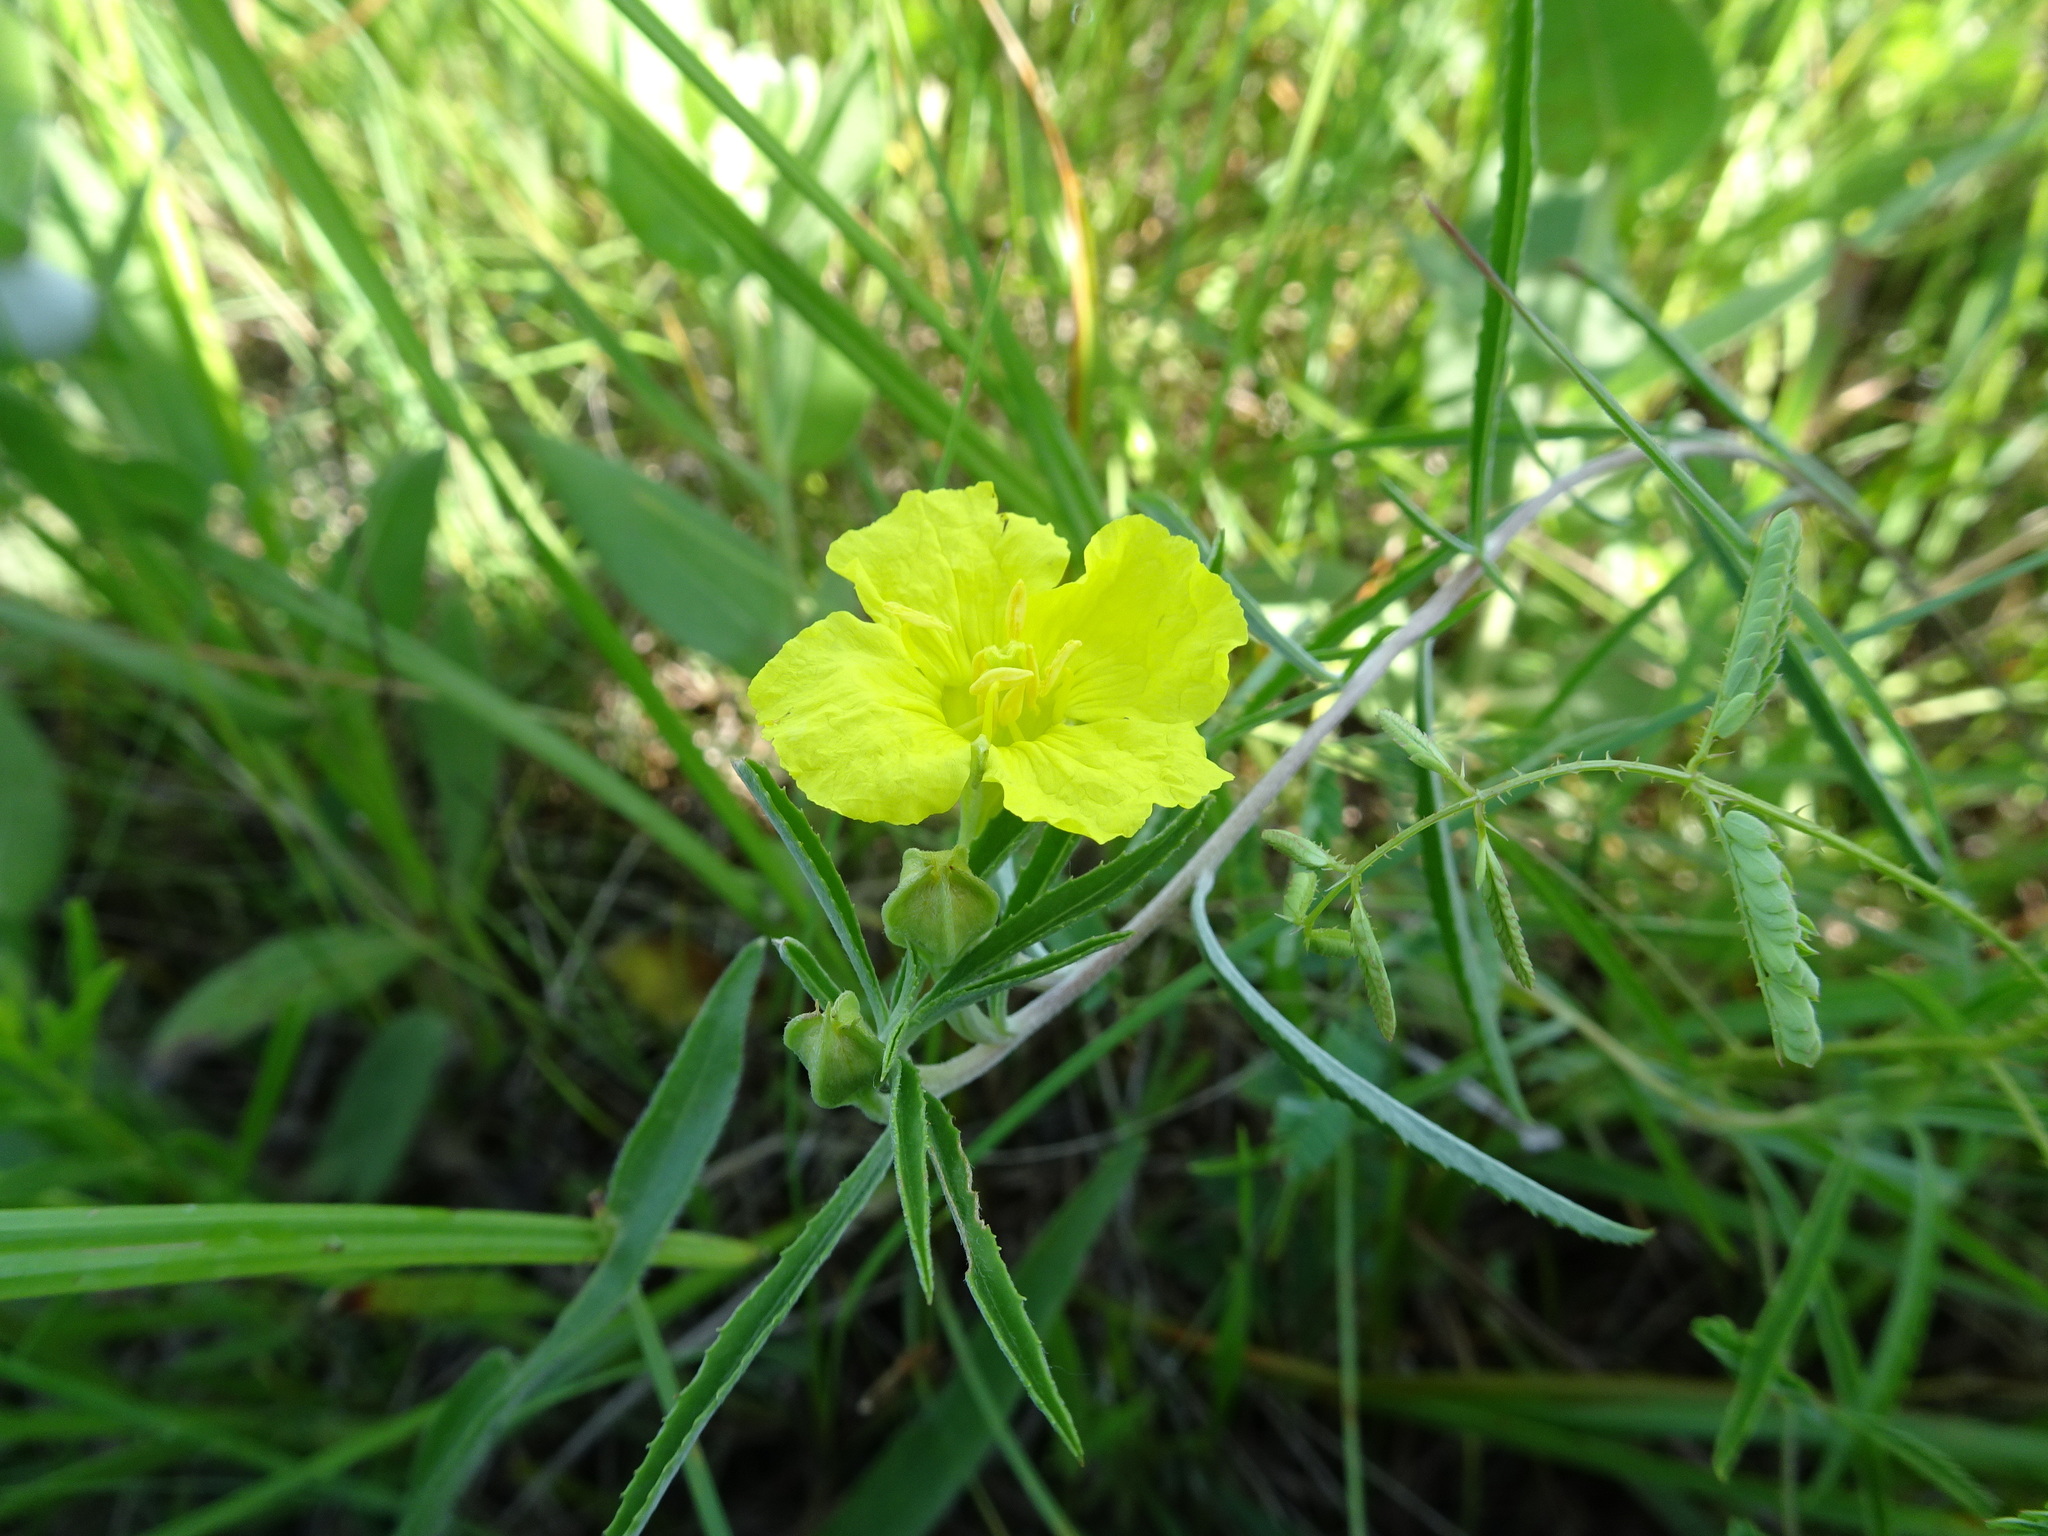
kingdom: Plantae
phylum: Tracheophyta
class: Magnoliopsida
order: Myrtales
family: Onagraceae
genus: Oenothera
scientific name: Oenothera serrulata
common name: Half-shrub calylophus
